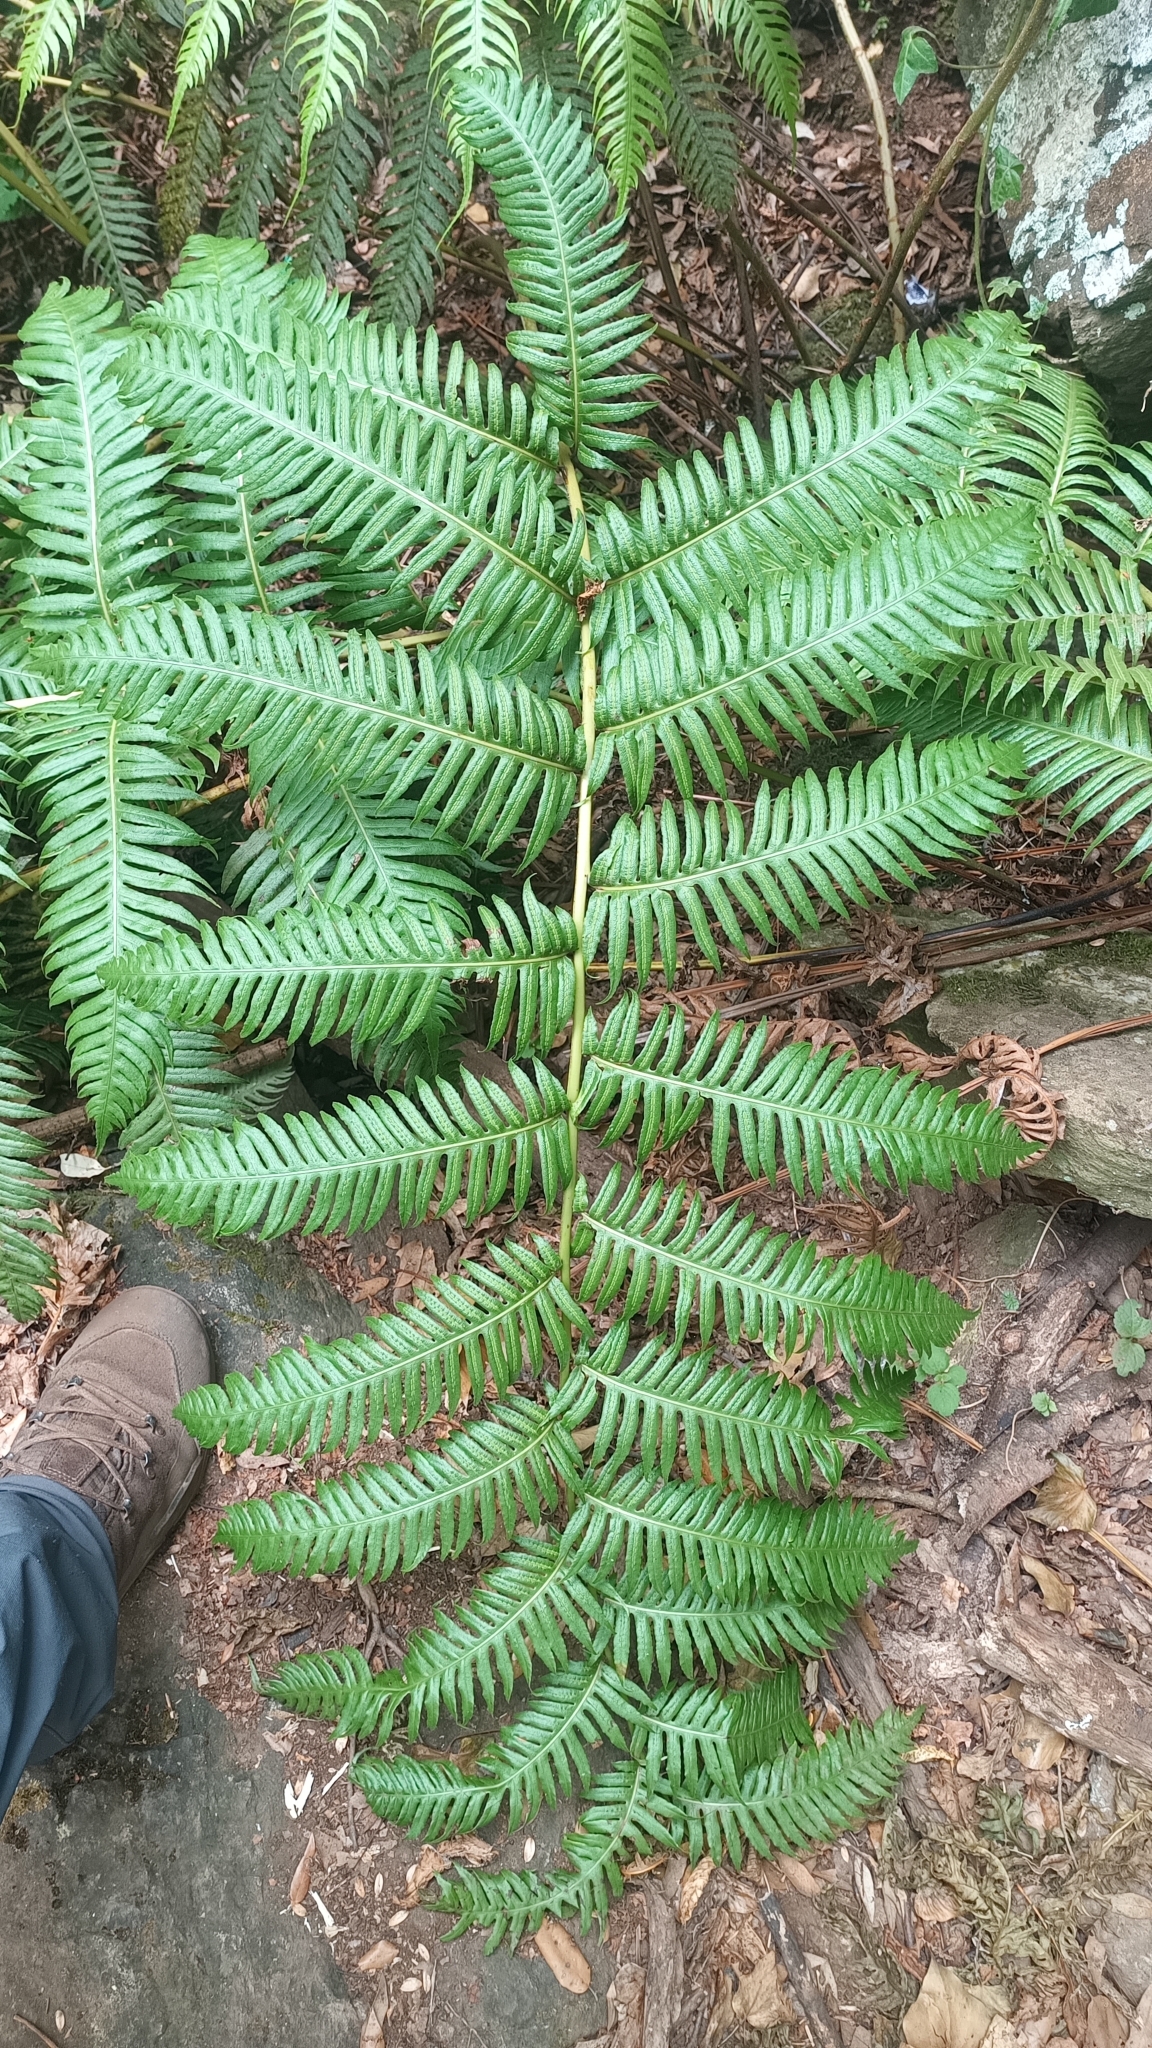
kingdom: Plantae
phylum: Tracheophyta
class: Polypodiopsida
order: Polypodiales
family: Blechnaceae
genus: Woodwardia
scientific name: Woodwardia radicans
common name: Rooting chainfern
